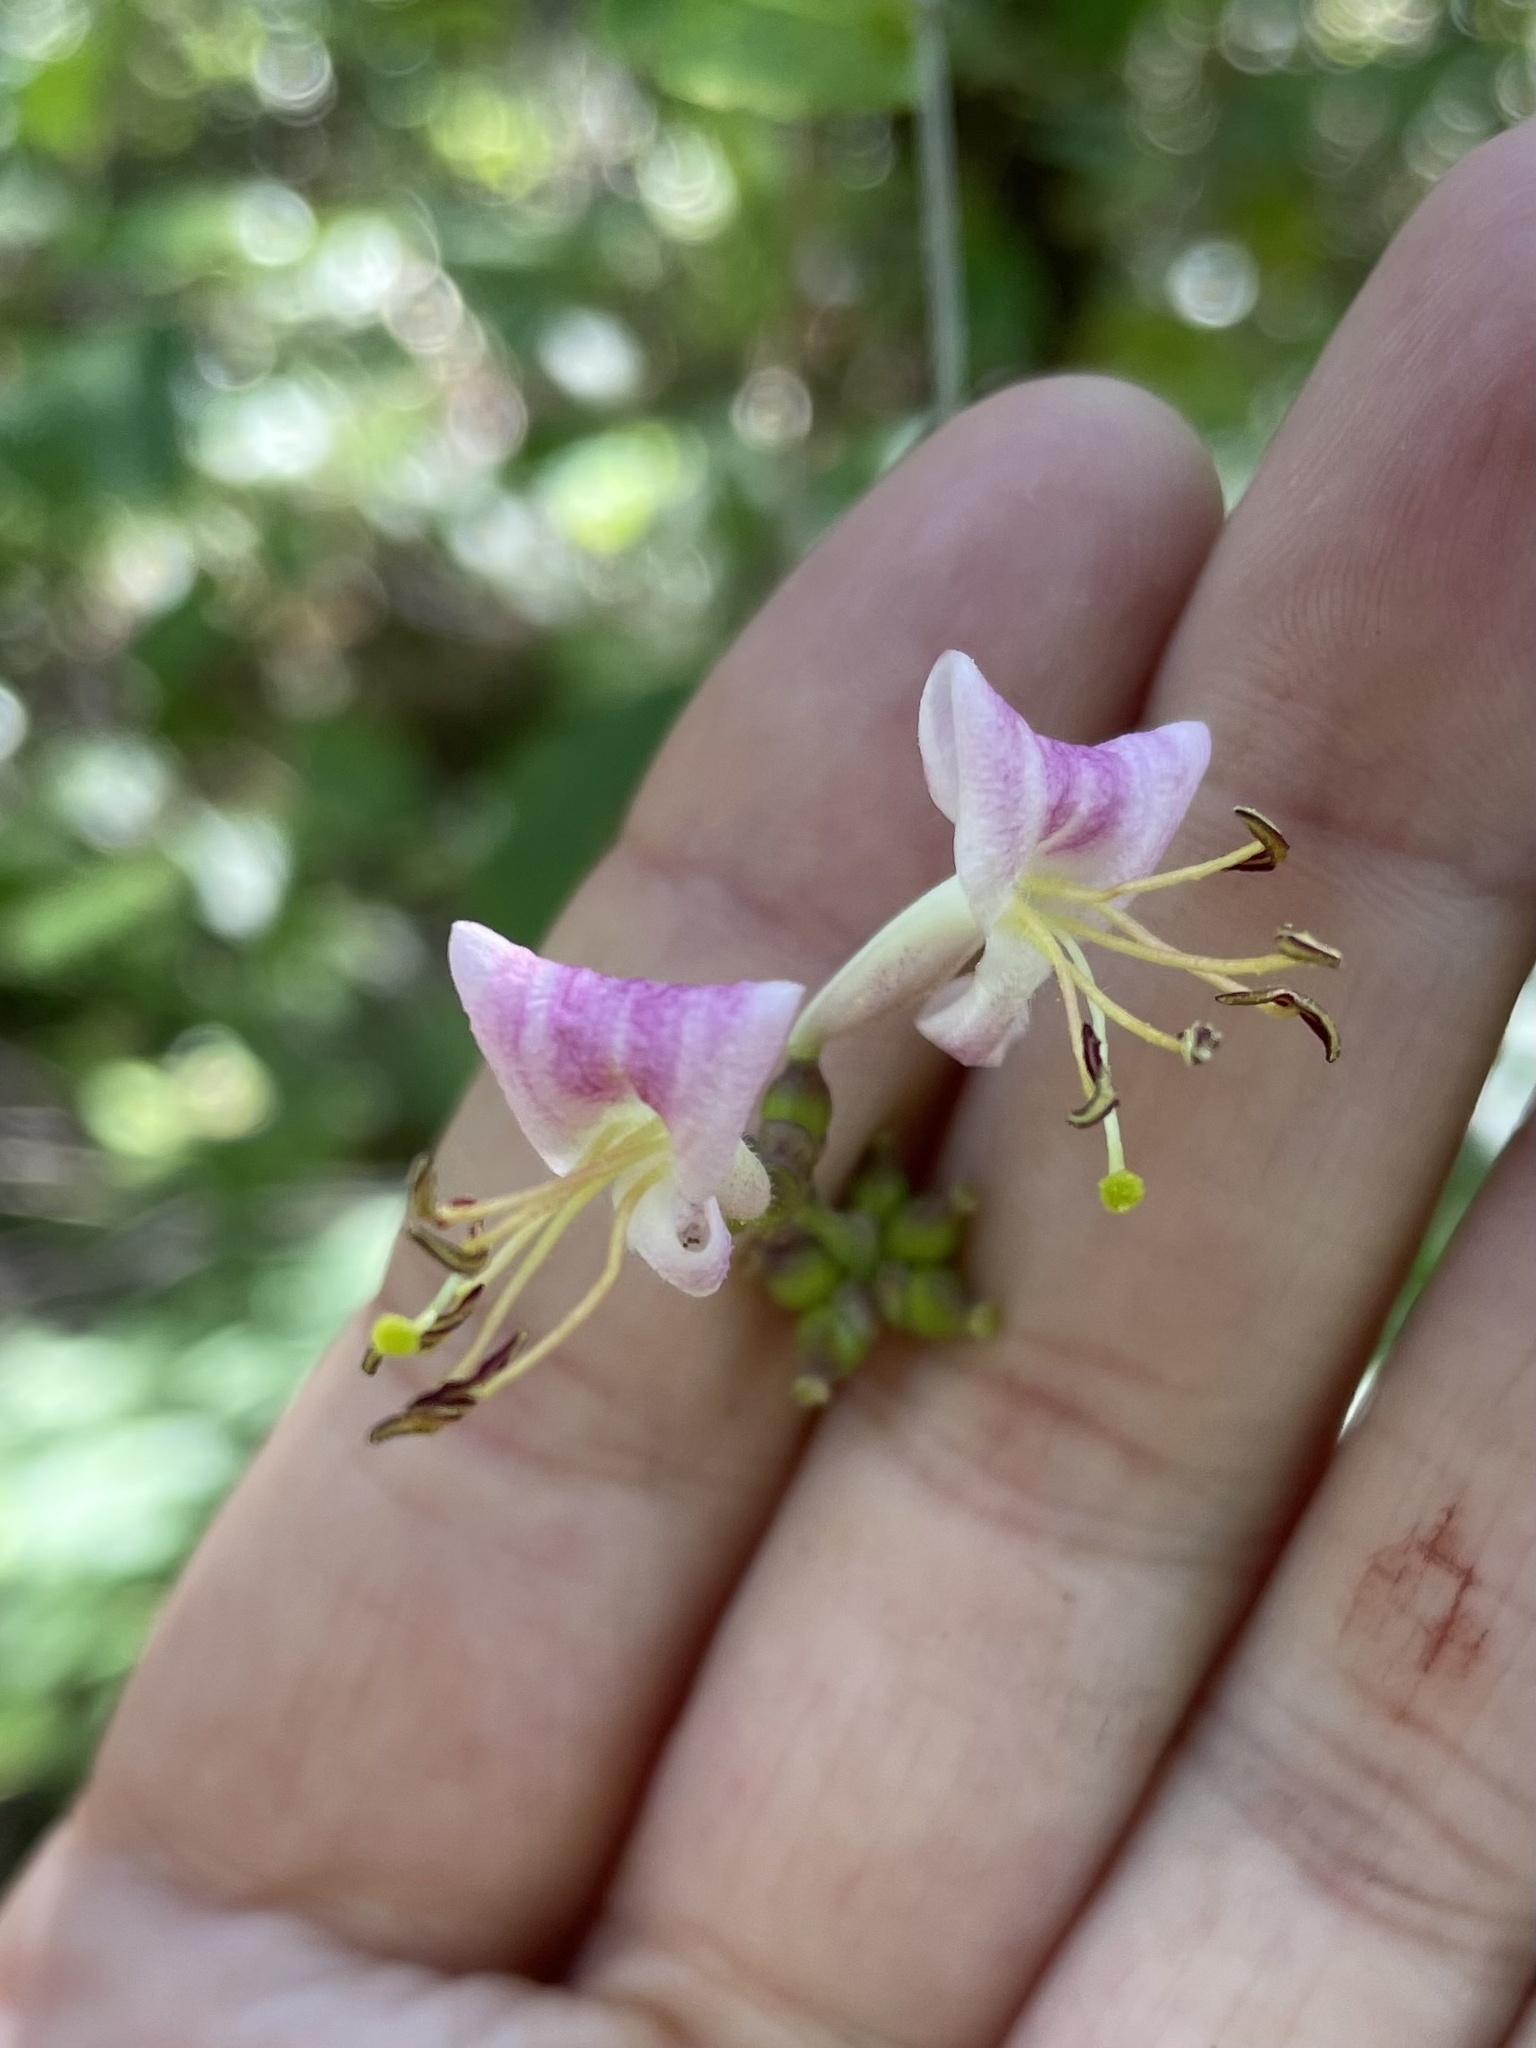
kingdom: Plantae
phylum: Tracheophyta
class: Magnoliopsida
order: Dipsacales
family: Caprifoliaceae
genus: Lonicera
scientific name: Lonicera hispidula
